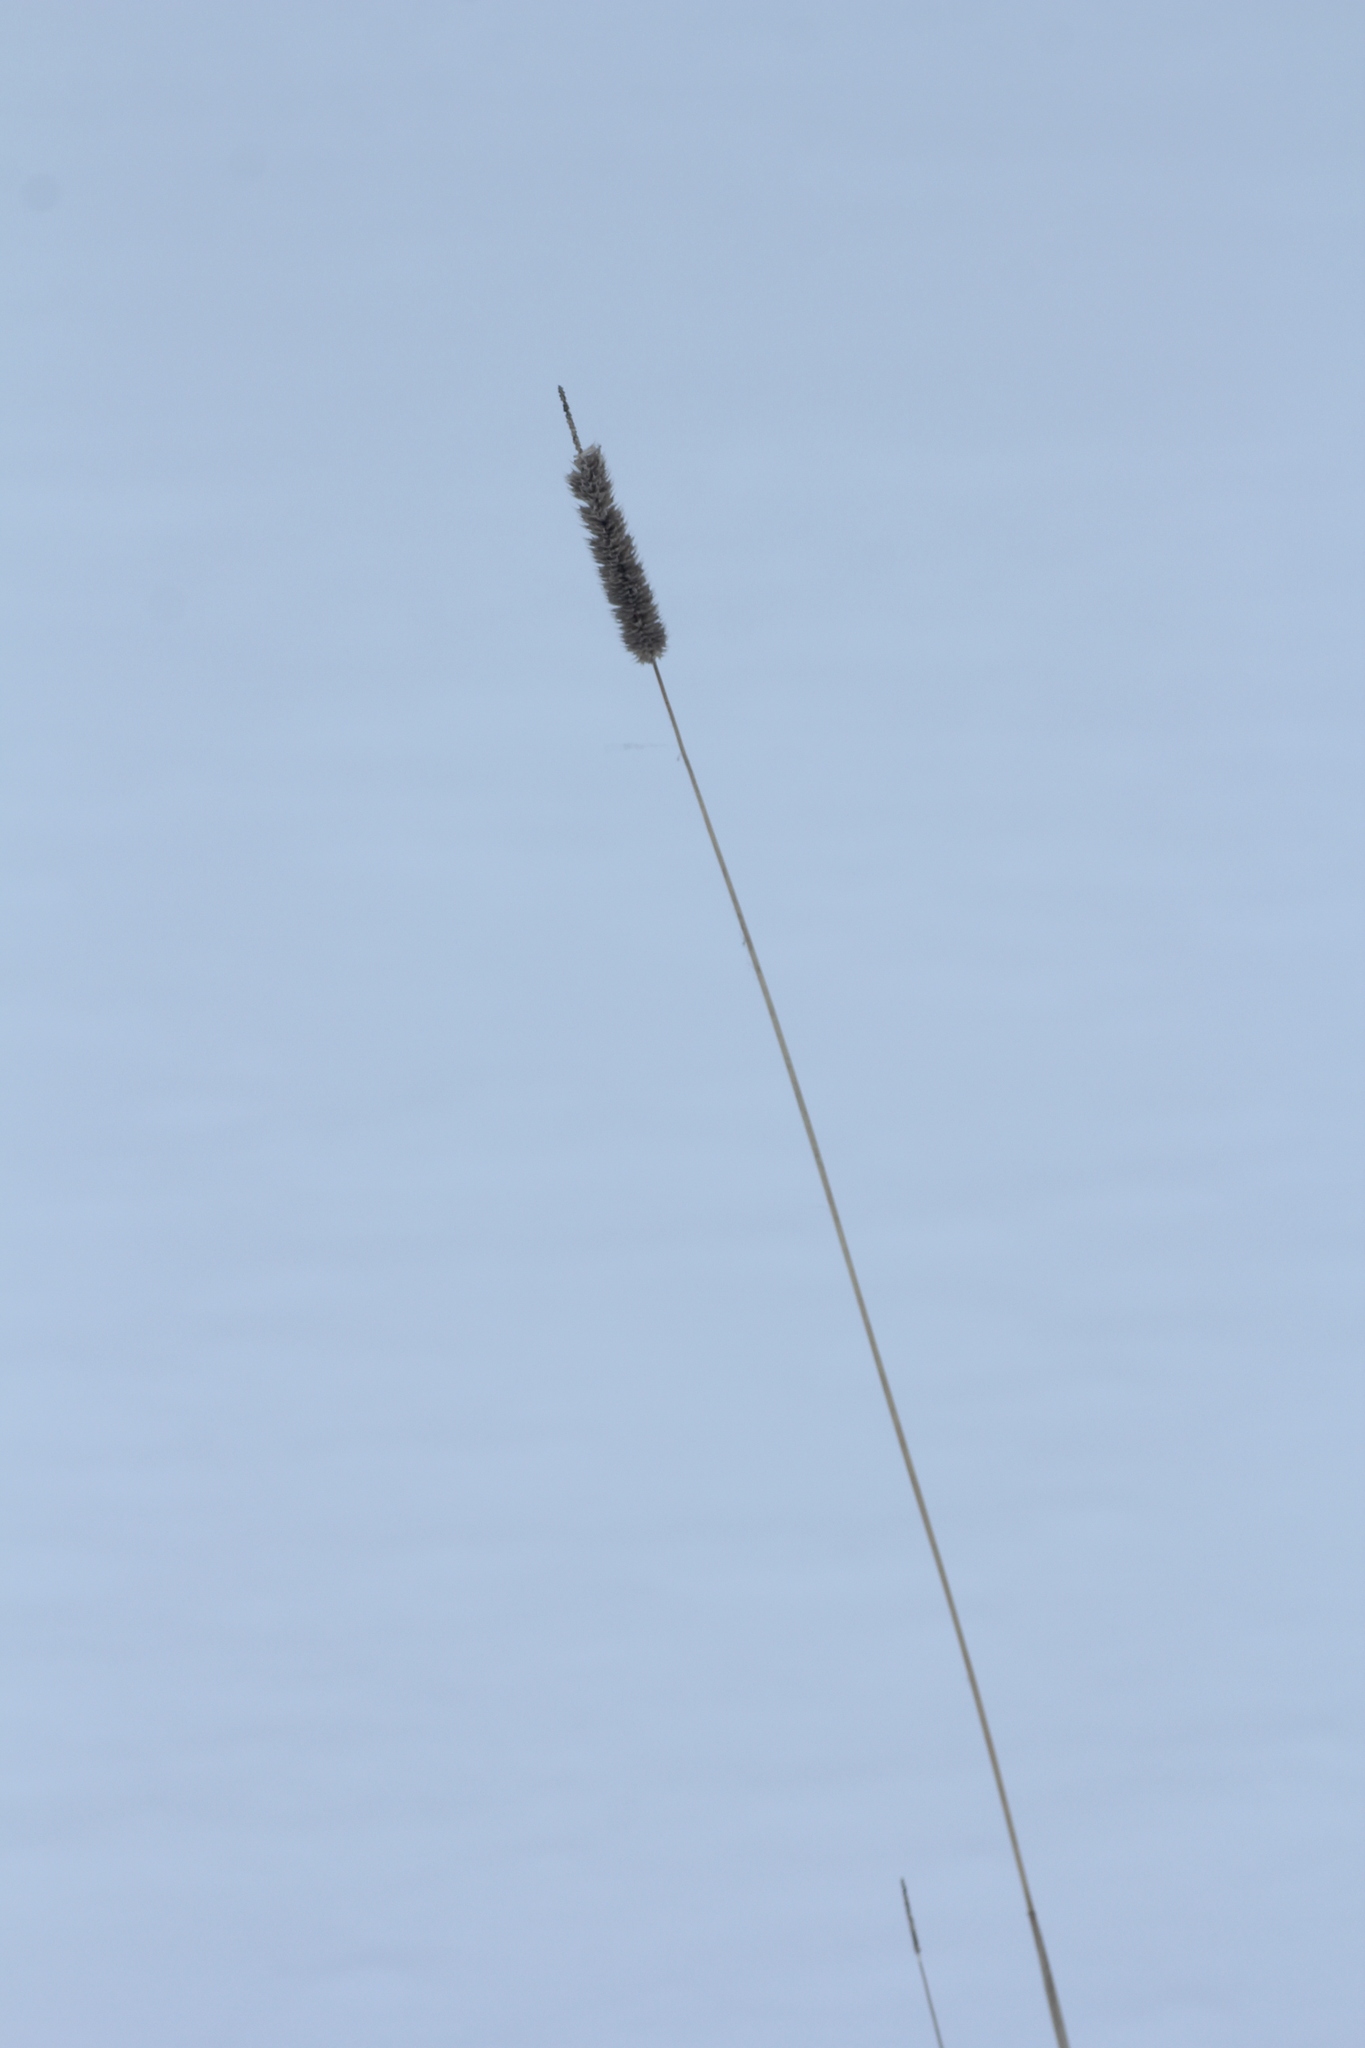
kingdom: Plantae
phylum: Tracheophyta
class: Liliopsida
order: Poales
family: Poaceae
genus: Phleum
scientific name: Phleum pratense
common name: Timothy grass
